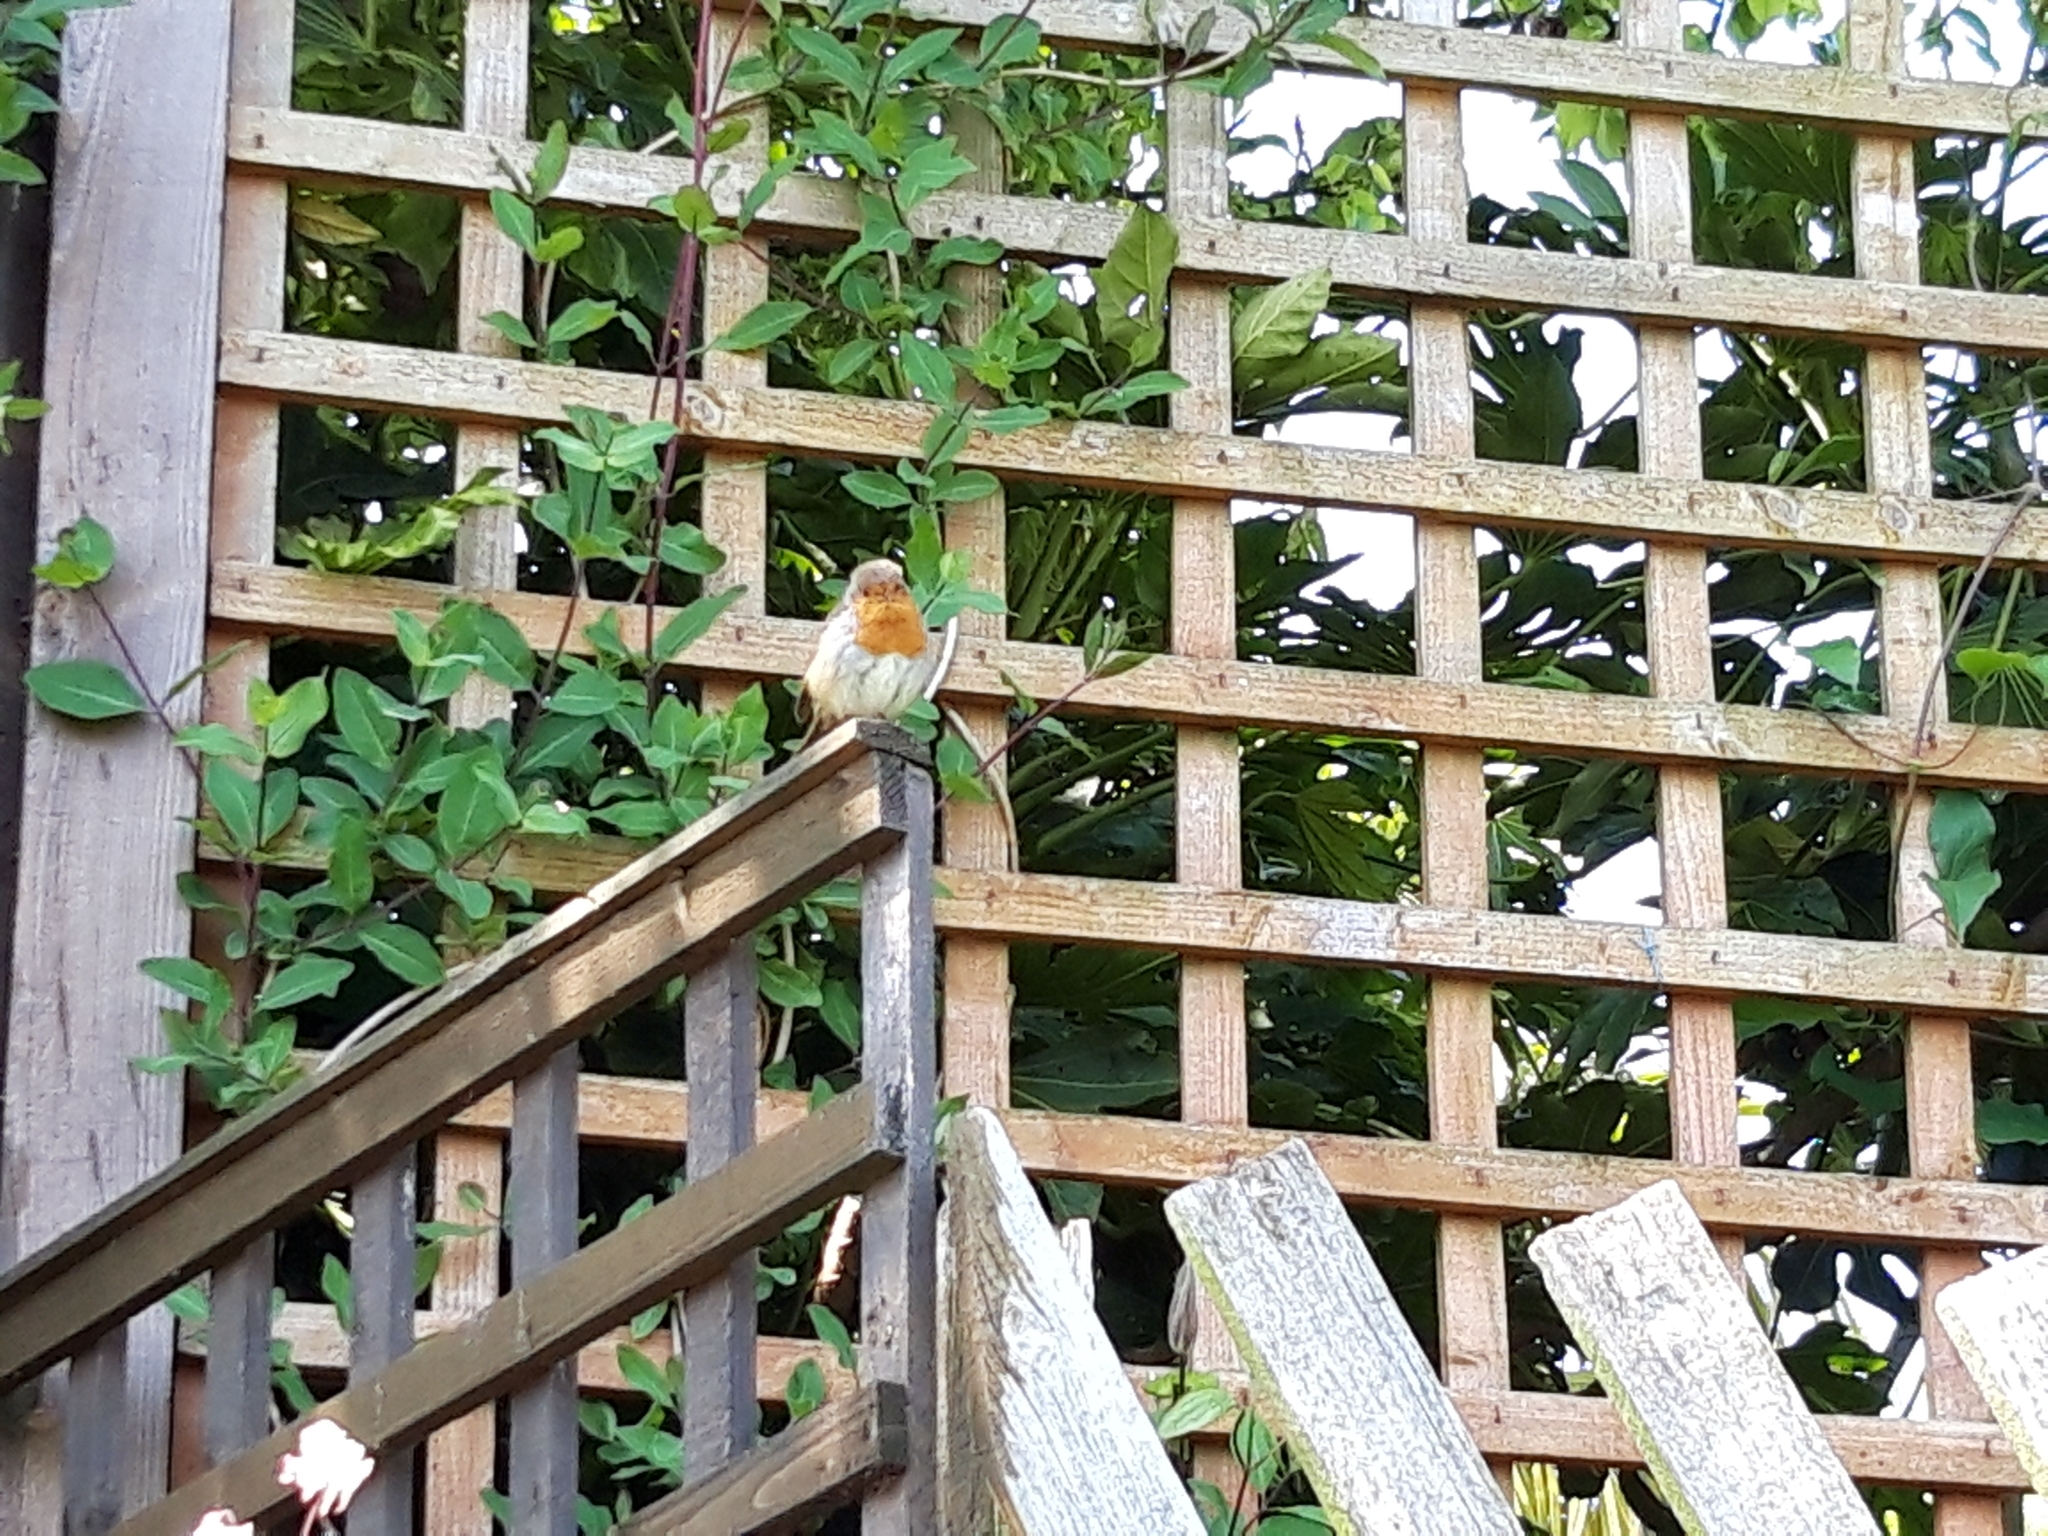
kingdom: Animalia
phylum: Chordata
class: Aves
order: Passeriformes
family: Muscicapidae
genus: Erithacus
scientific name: Erithacus rubecula
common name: European robin
